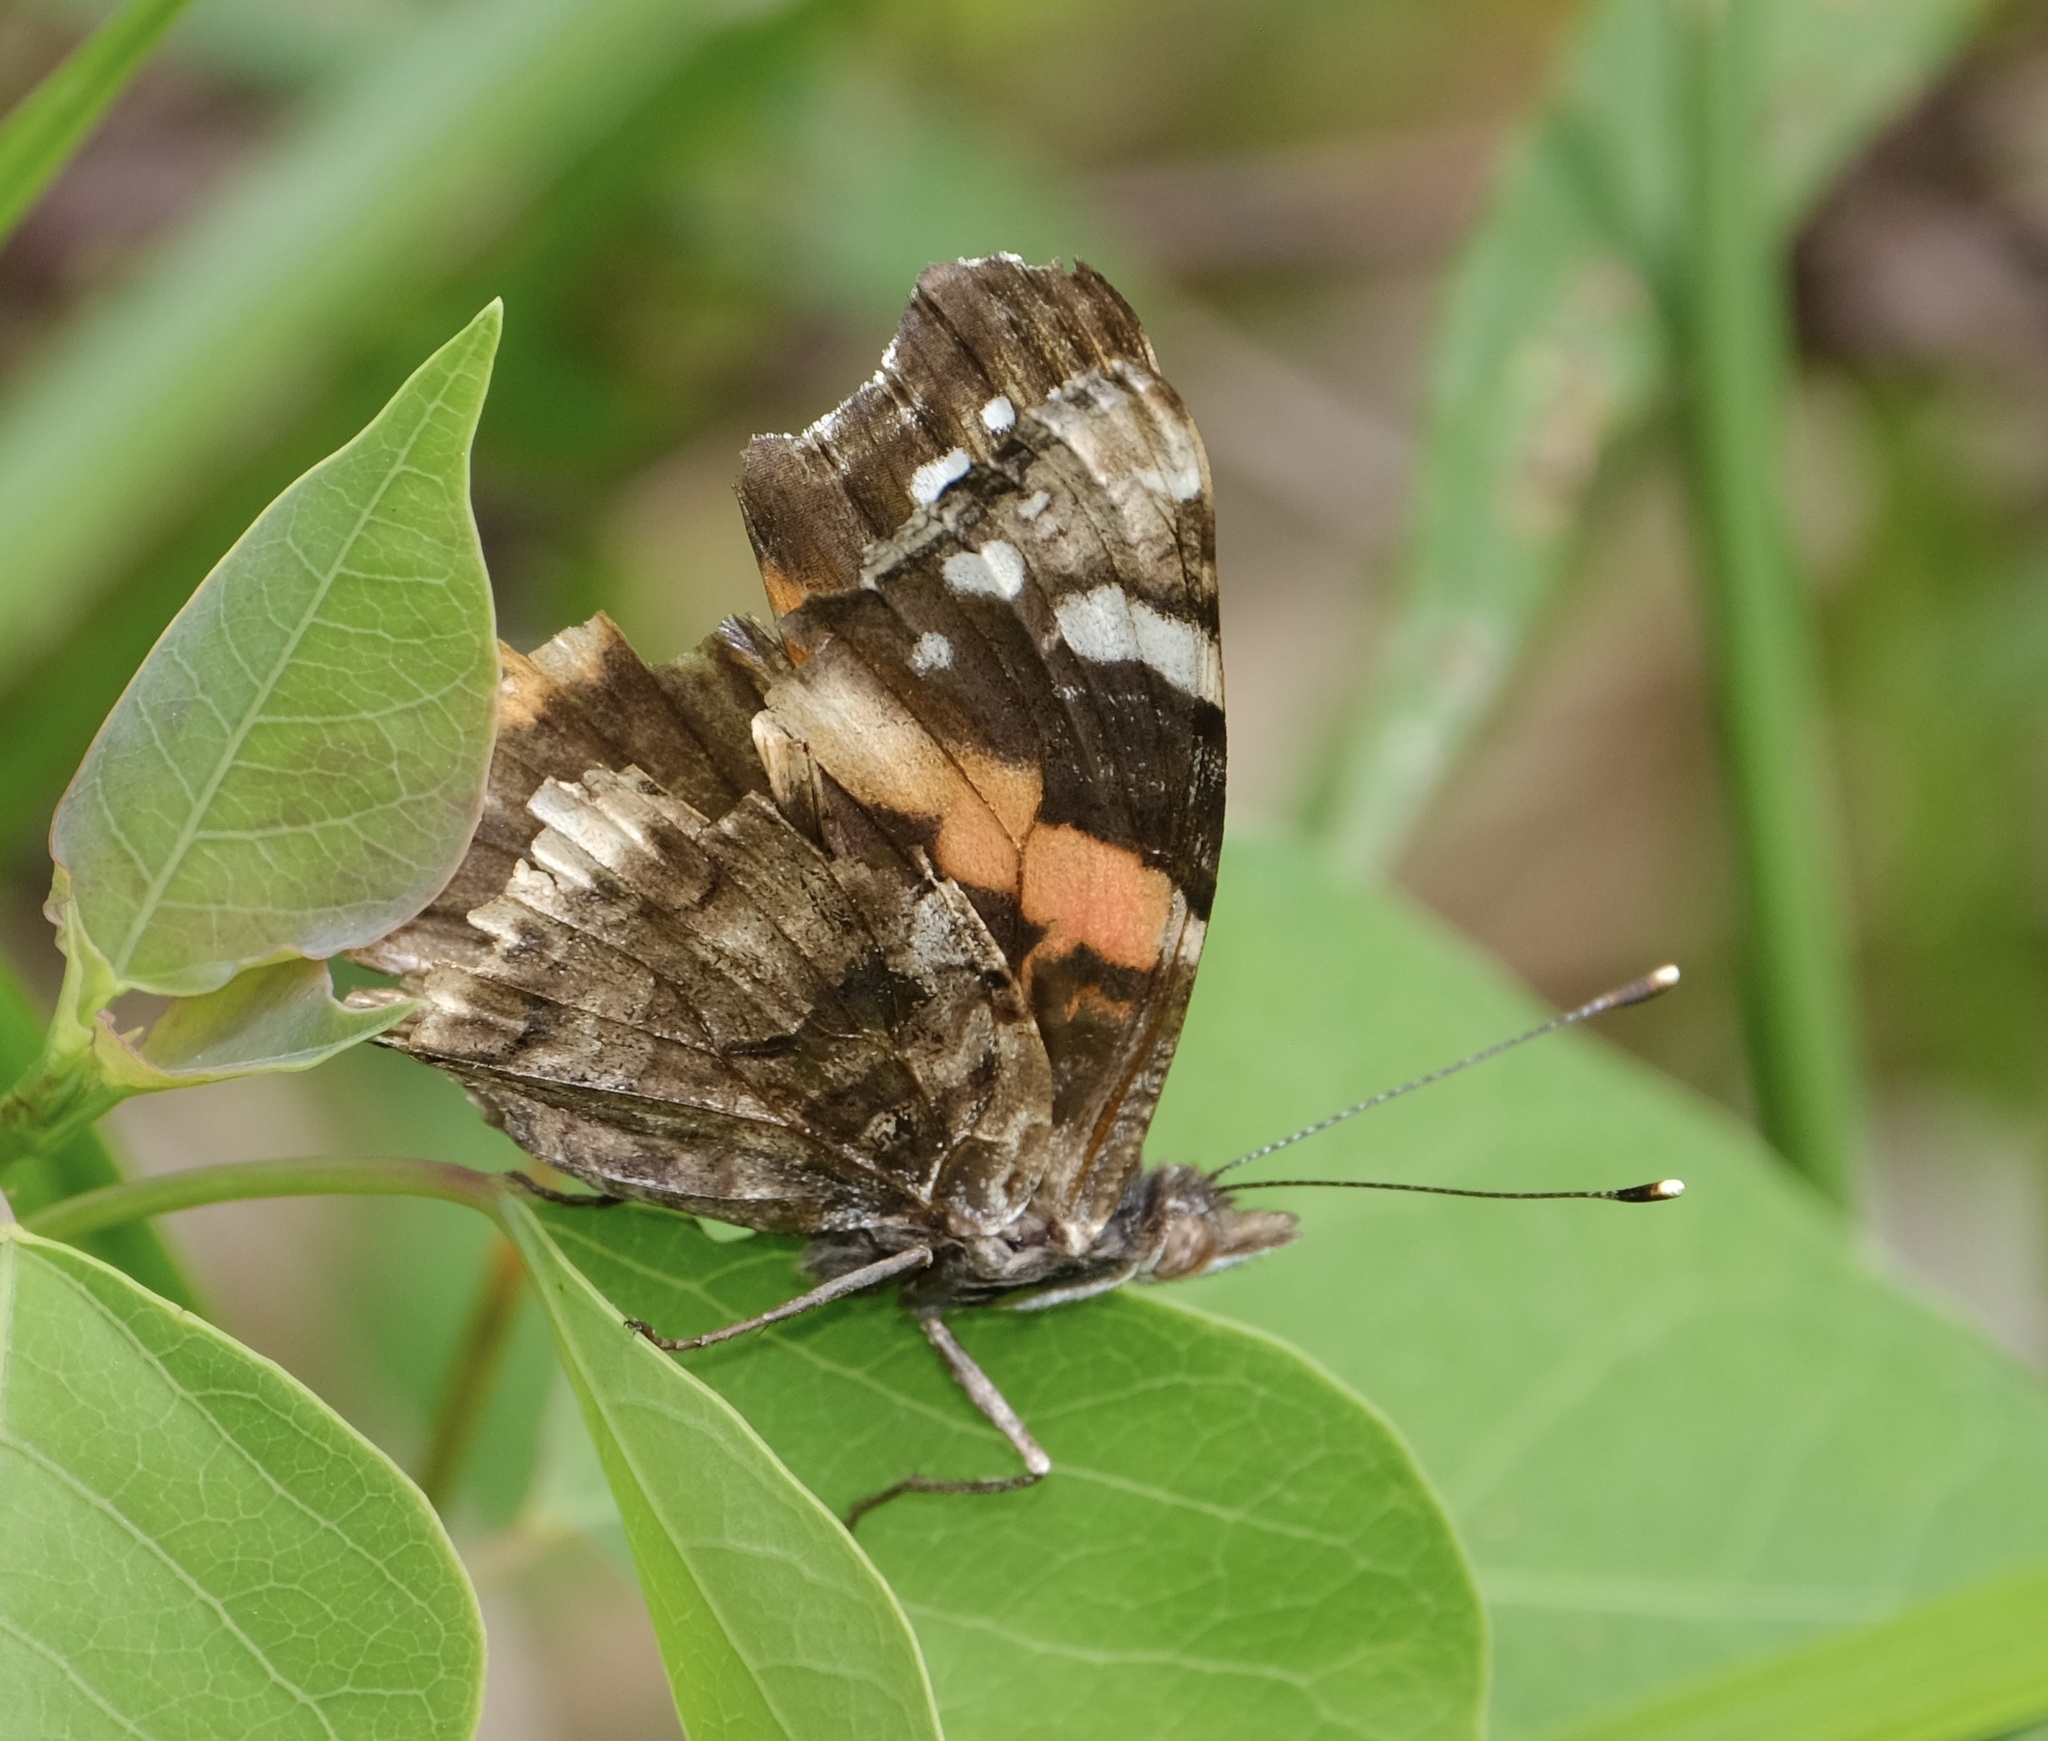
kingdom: Animalia
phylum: Arthropoda
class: Insecta
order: Lepidoptera
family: Nymphalidae
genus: Vanessa
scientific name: Vanessa atalanta
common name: Red admiral
